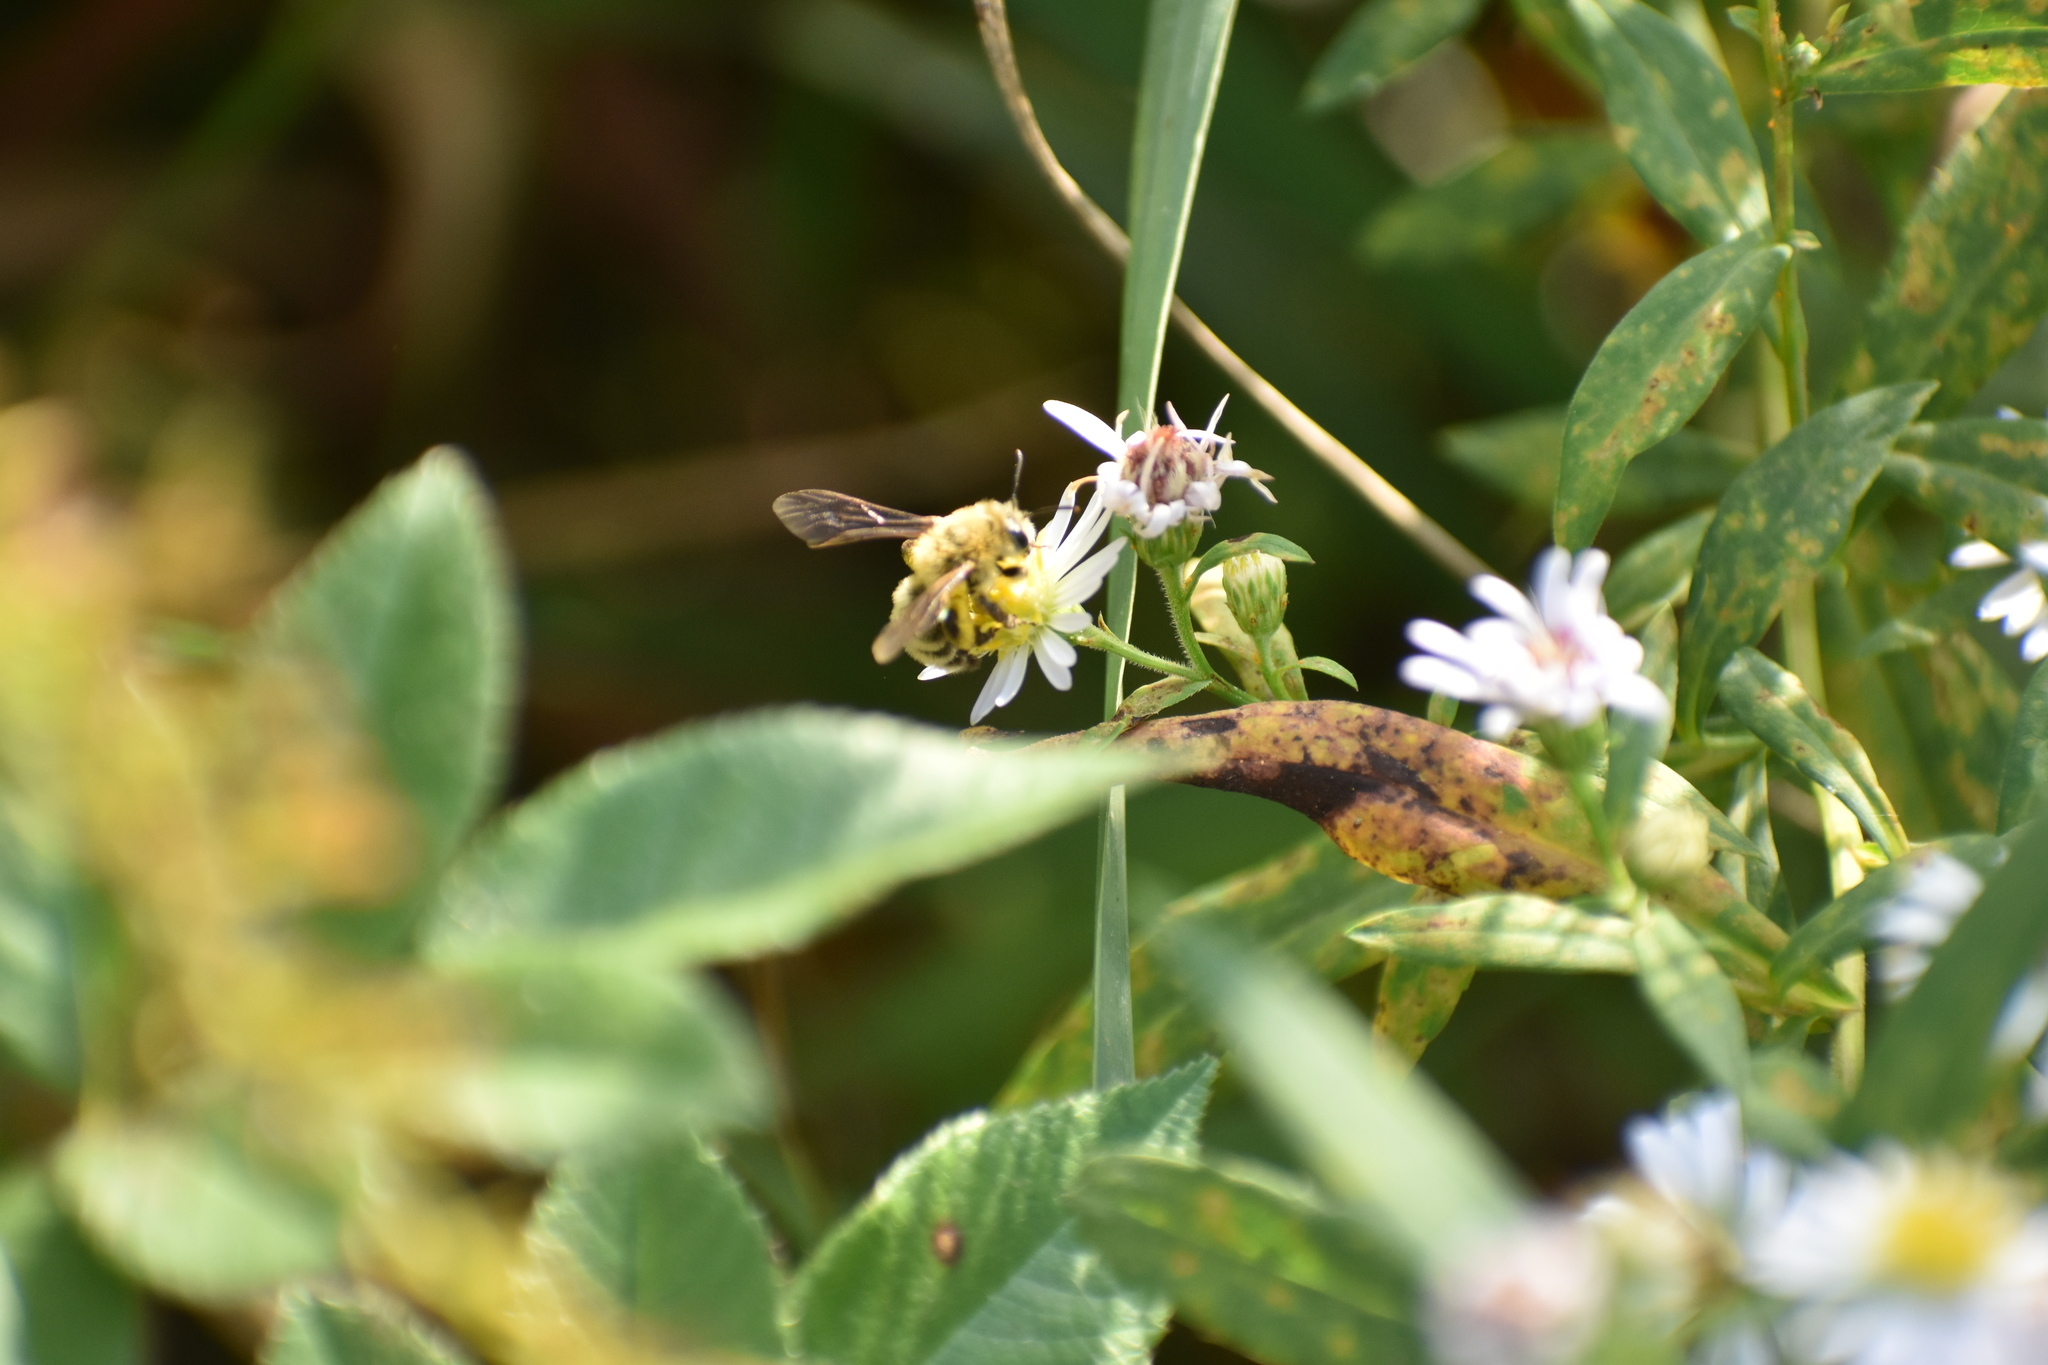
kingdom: Animalia
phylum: Arthropoda
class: Insecta
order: Hymenoptera
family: Andrenidae
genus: Andrena
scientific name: Andrena hirticincta
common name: Hairy-banded mining bee
